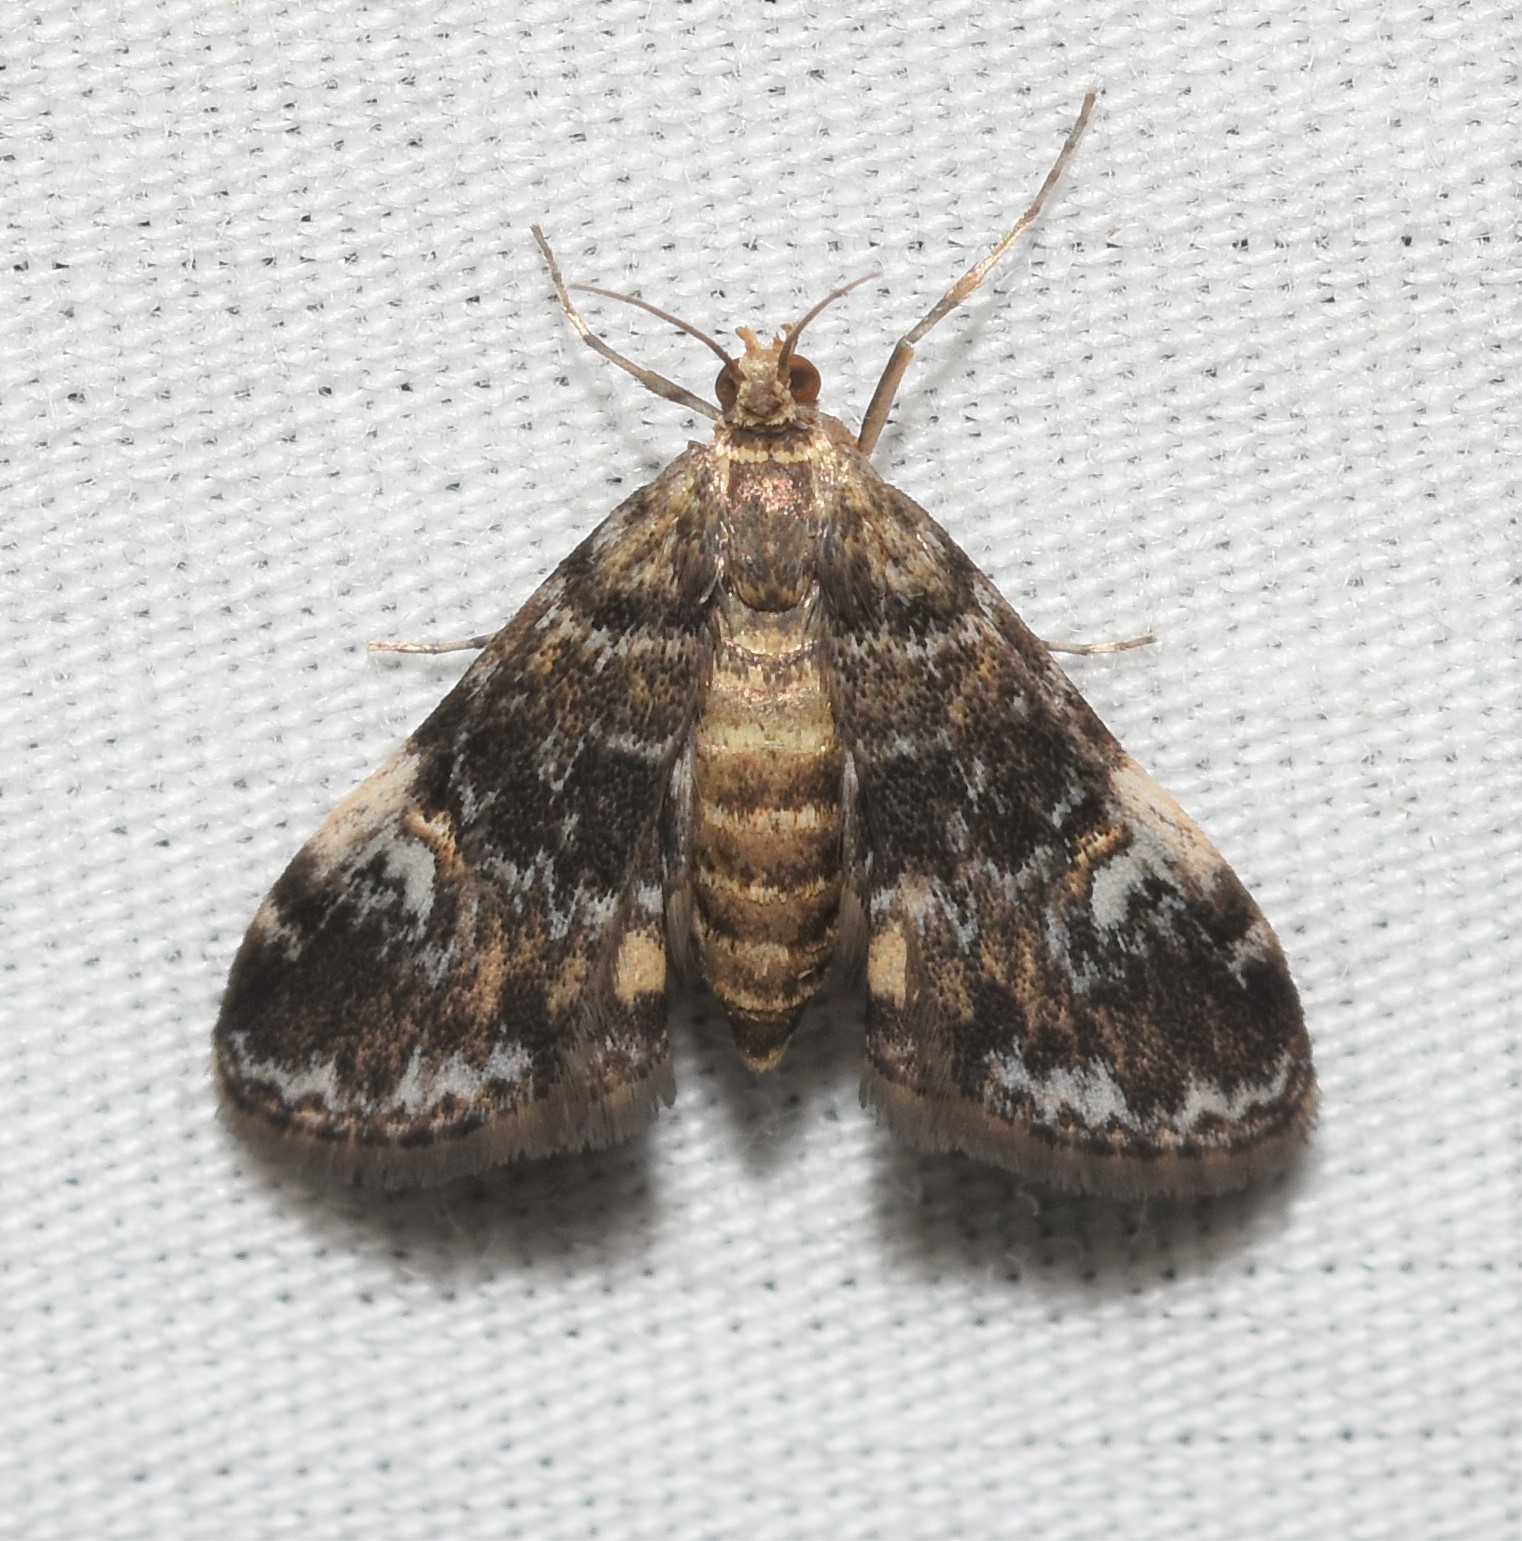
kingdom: Animalia
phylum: Arthropoda
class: Insecta
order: Lepidoptera
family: Crambidae
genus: Elophila
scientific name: Elophila obliteralis
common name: Waterlily leafcutter moth
